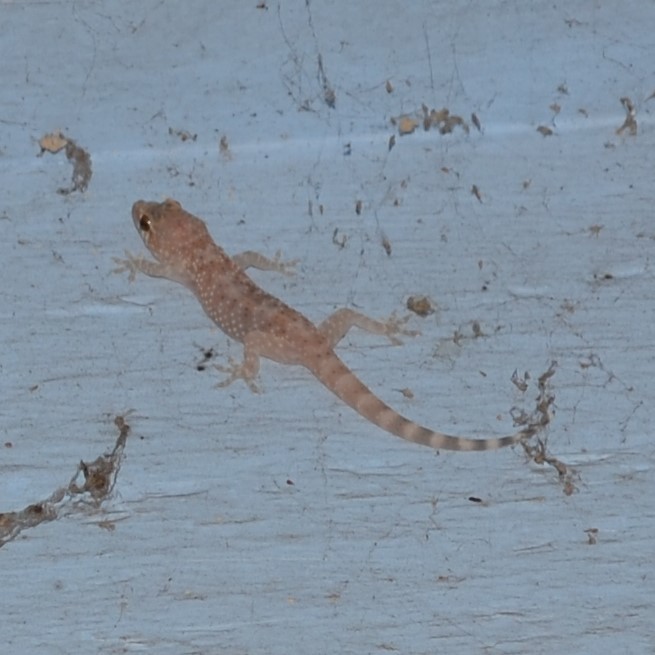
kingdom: Animalia
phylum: Chordata
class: Squamata
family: Gekkonidae
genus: Hemidactylus
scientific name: Hemidactylus turcicus
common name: Turkish gecko
